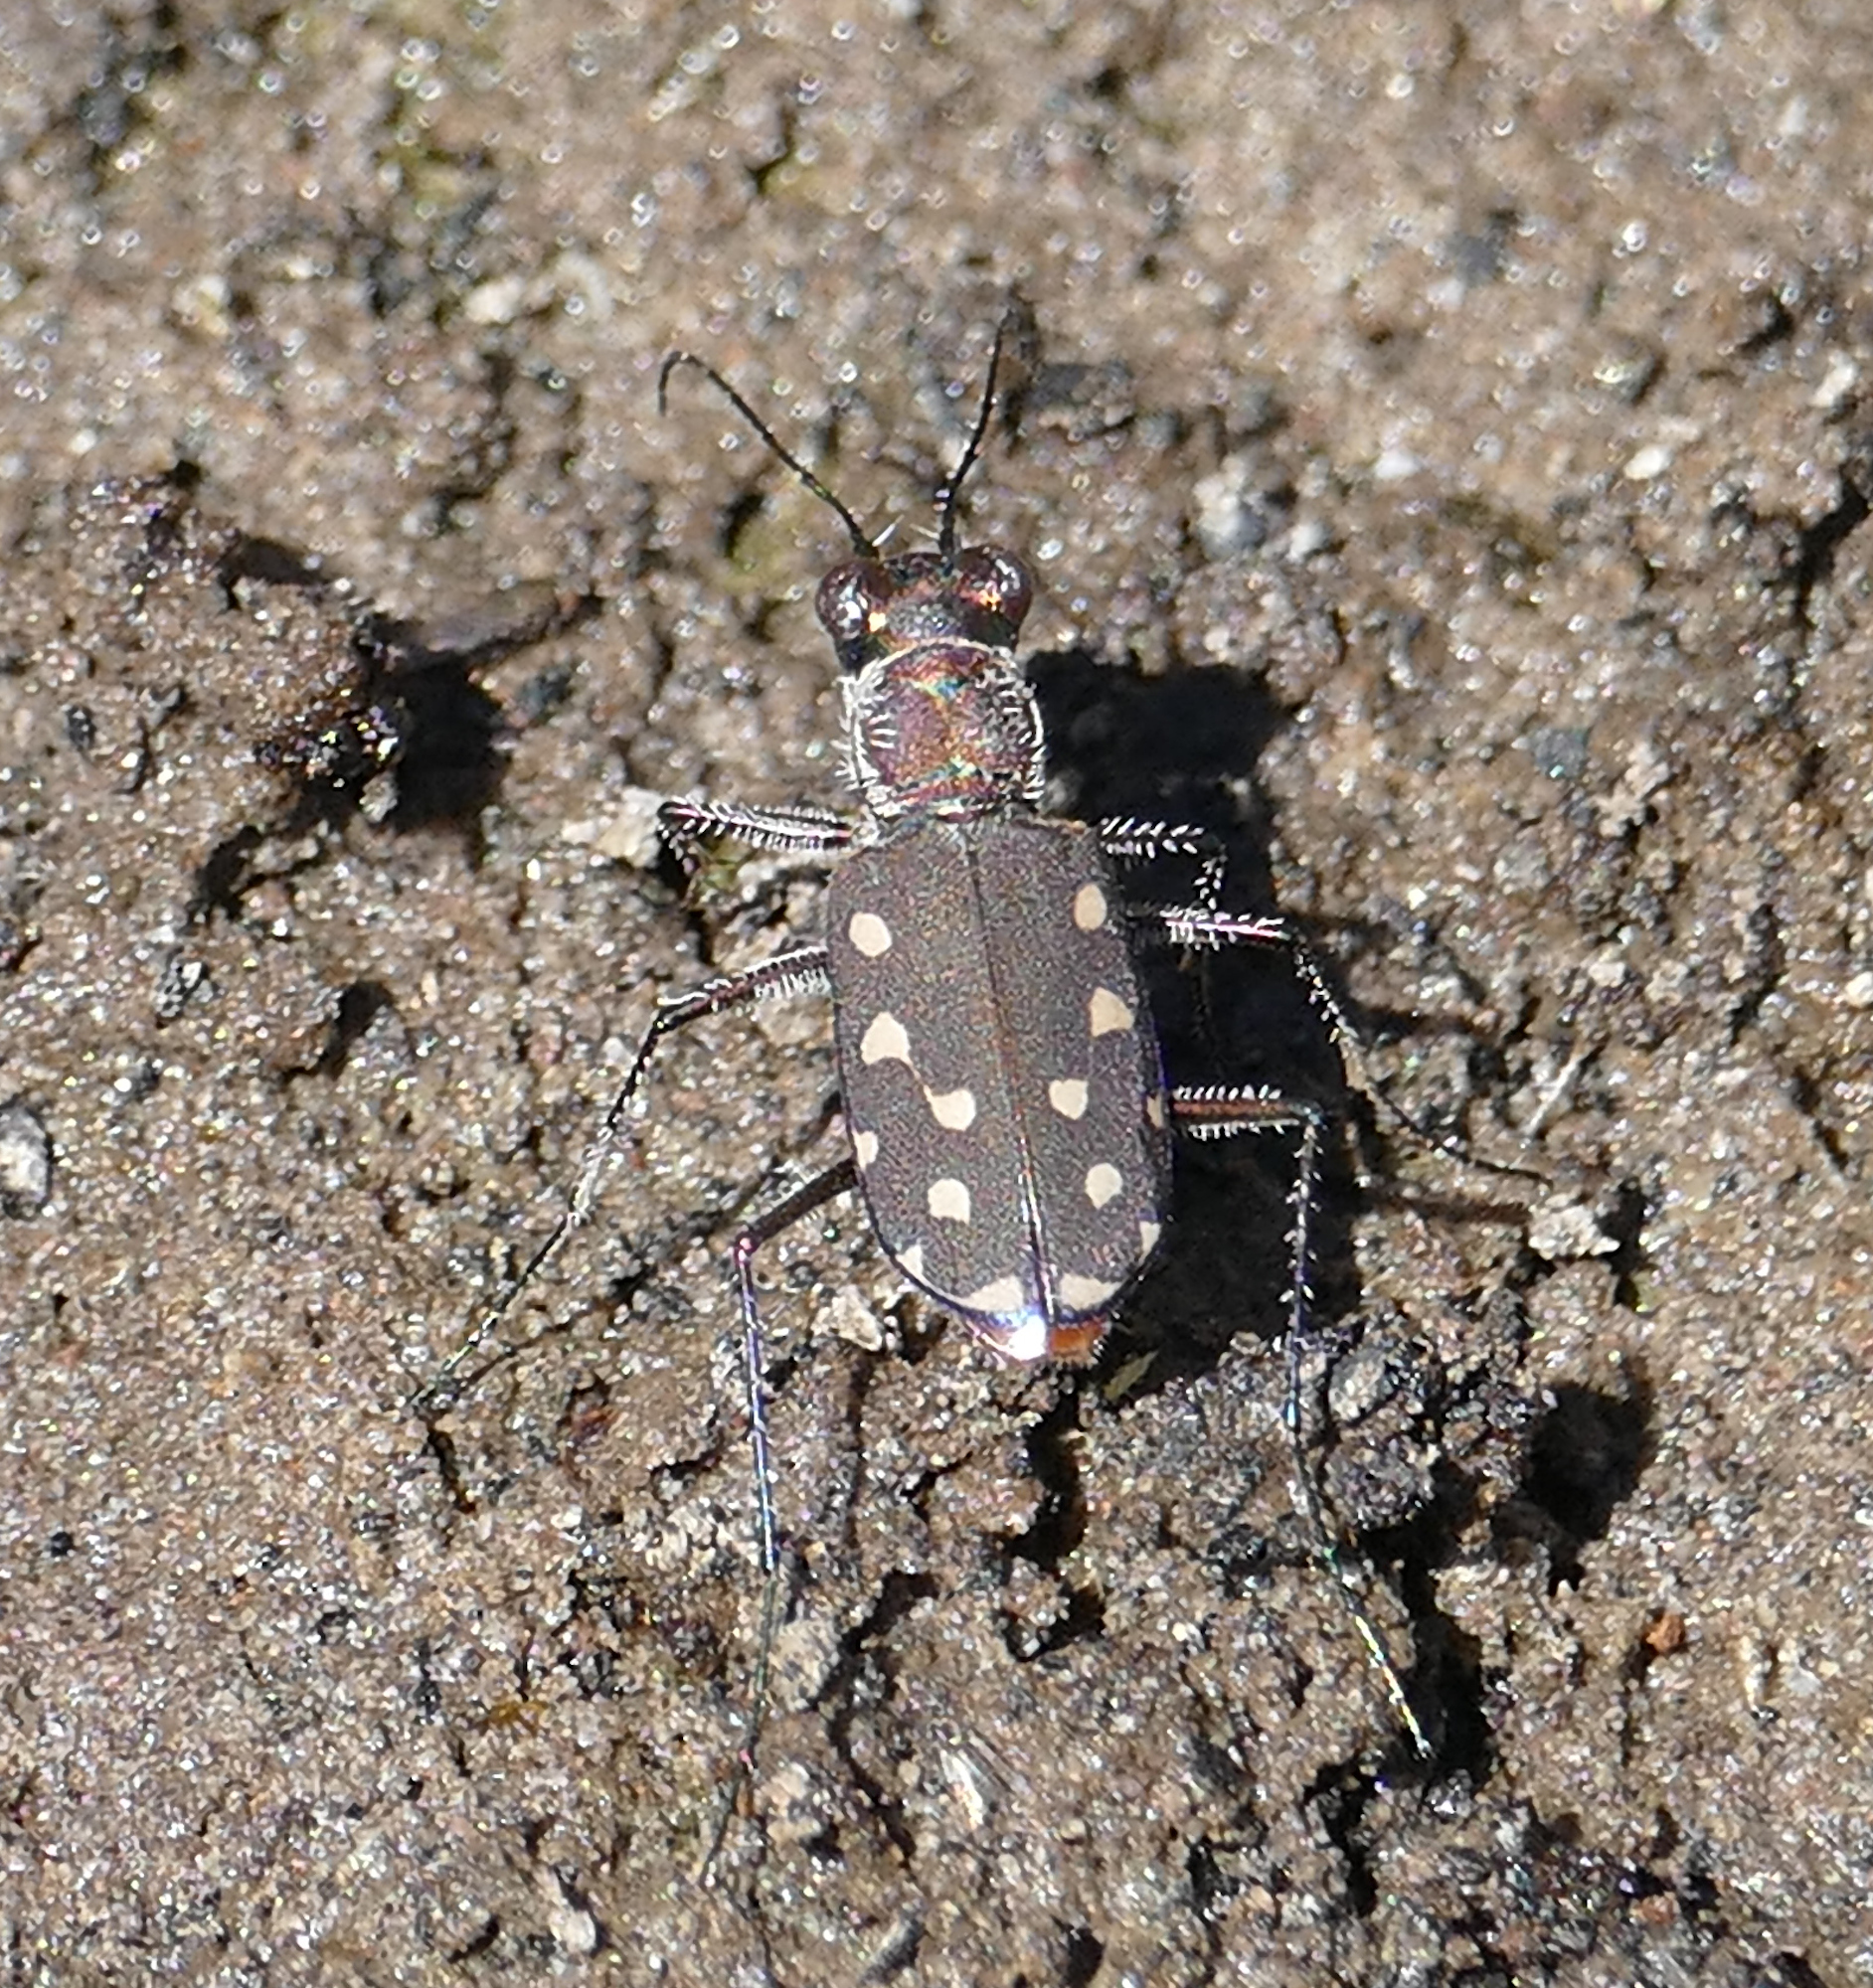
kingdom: Animalia
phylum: Arthropoda
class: Insecta
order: Coleoptera
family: Carabidae
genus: Cicindela
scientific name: Cicindela sedecimpunctata
